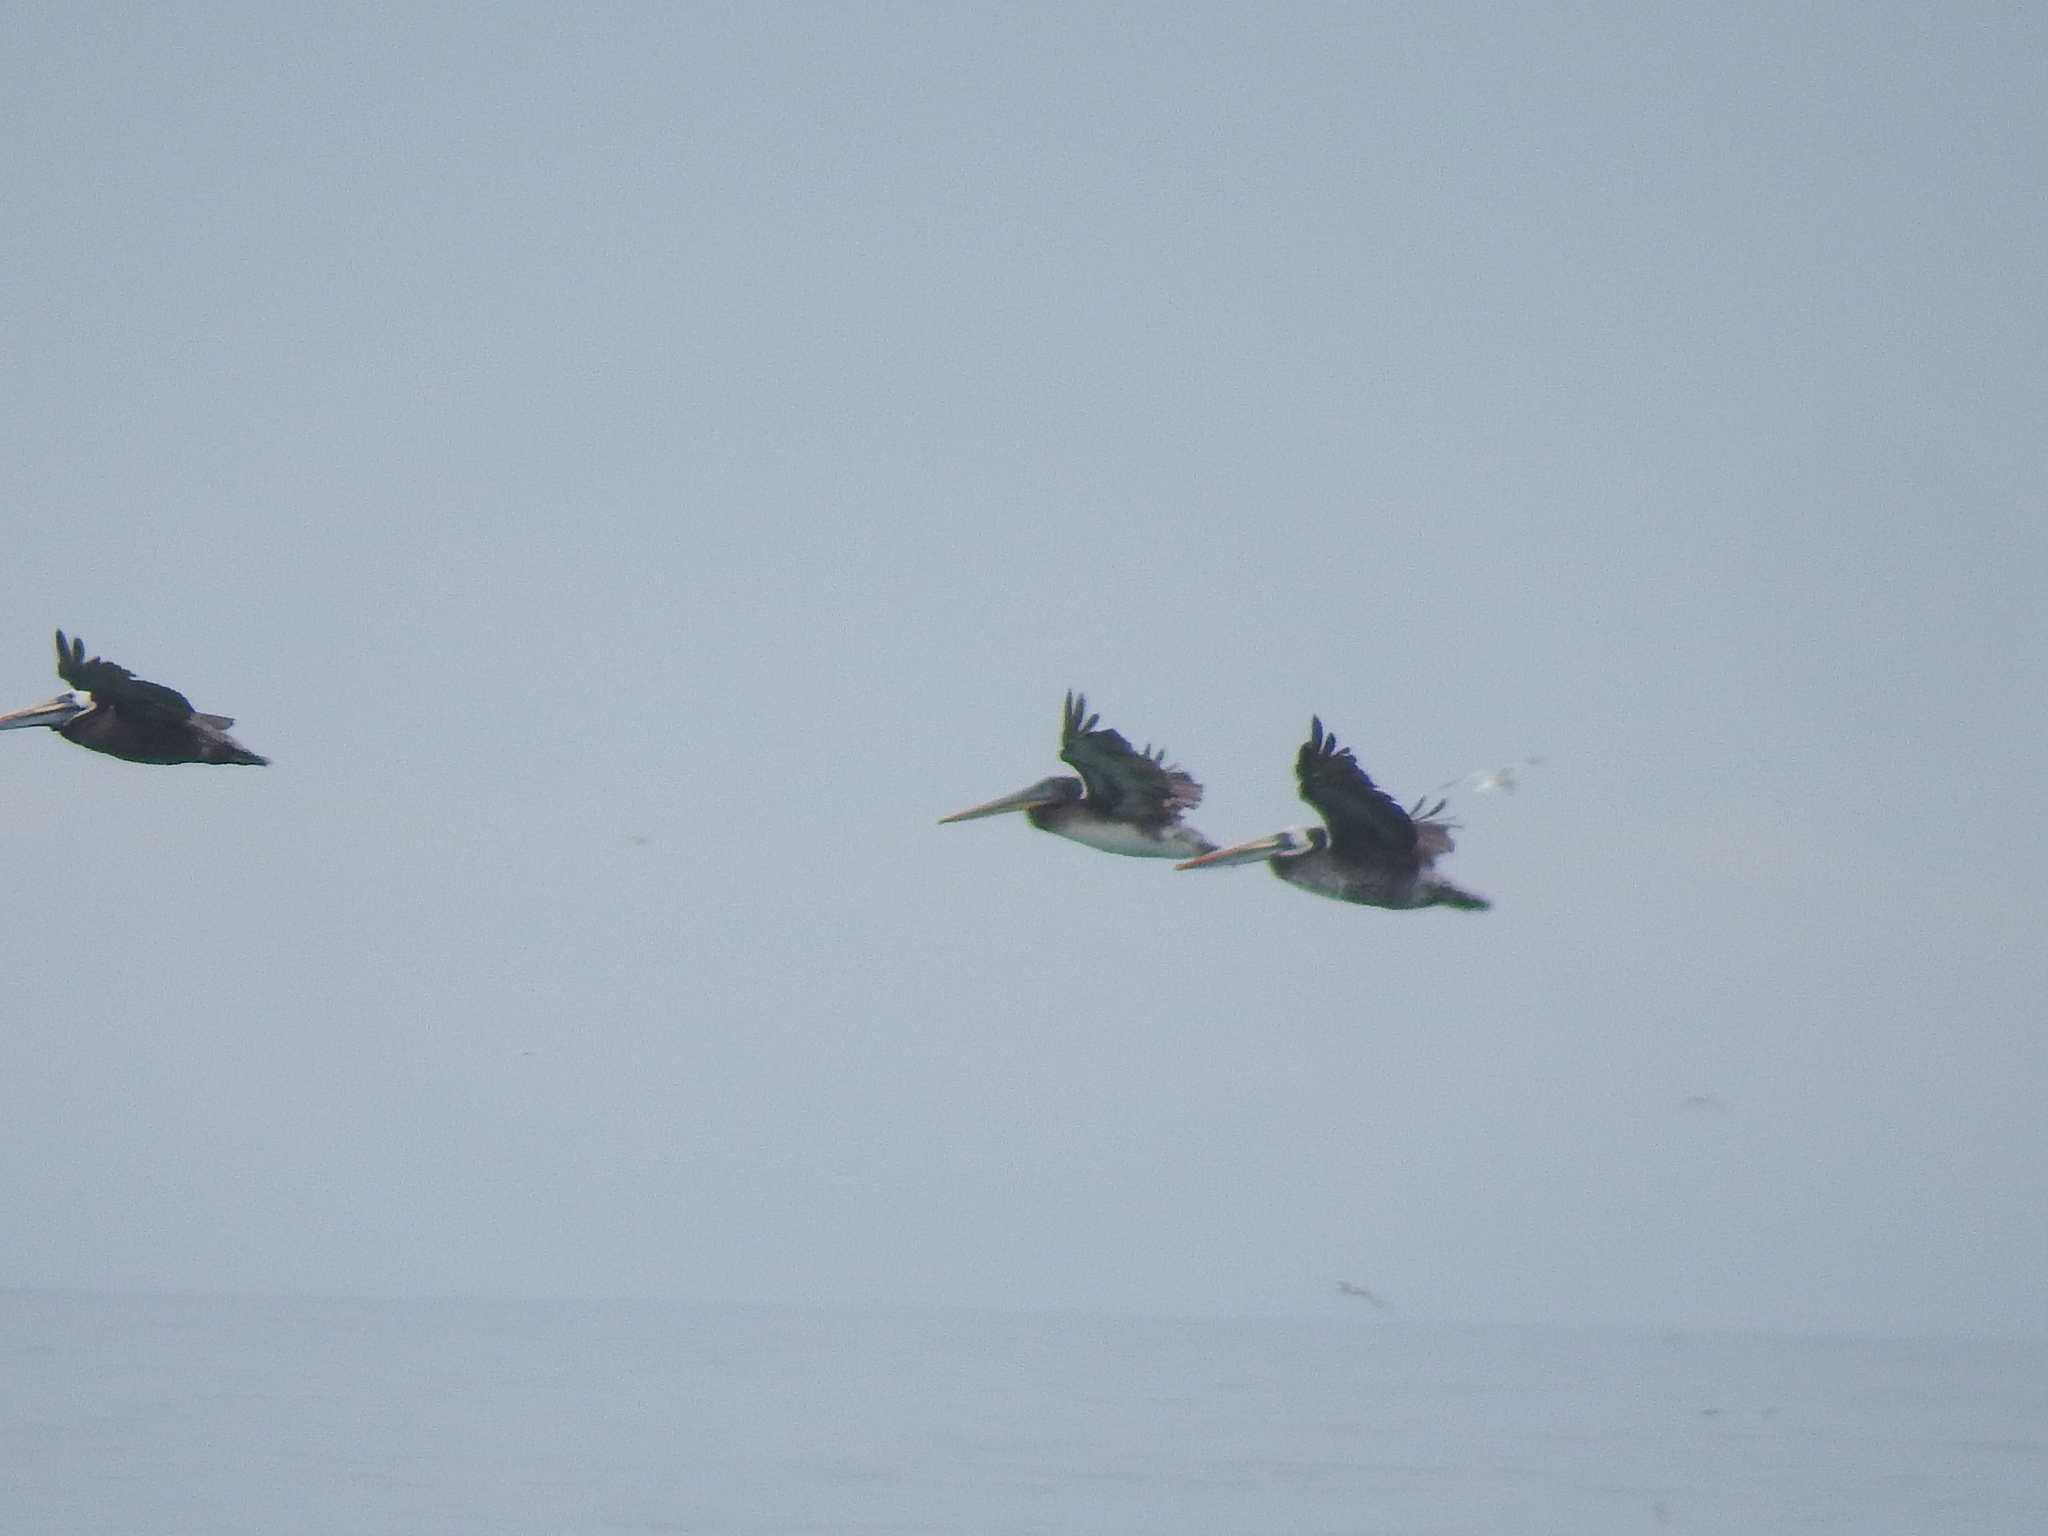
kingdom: Animalia
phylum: Chordata
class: Aves
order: Pelecaniformes
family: Pelecanidae
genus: Pelecanus
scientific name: Pelecanus thagus
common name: Peruvian pelican
